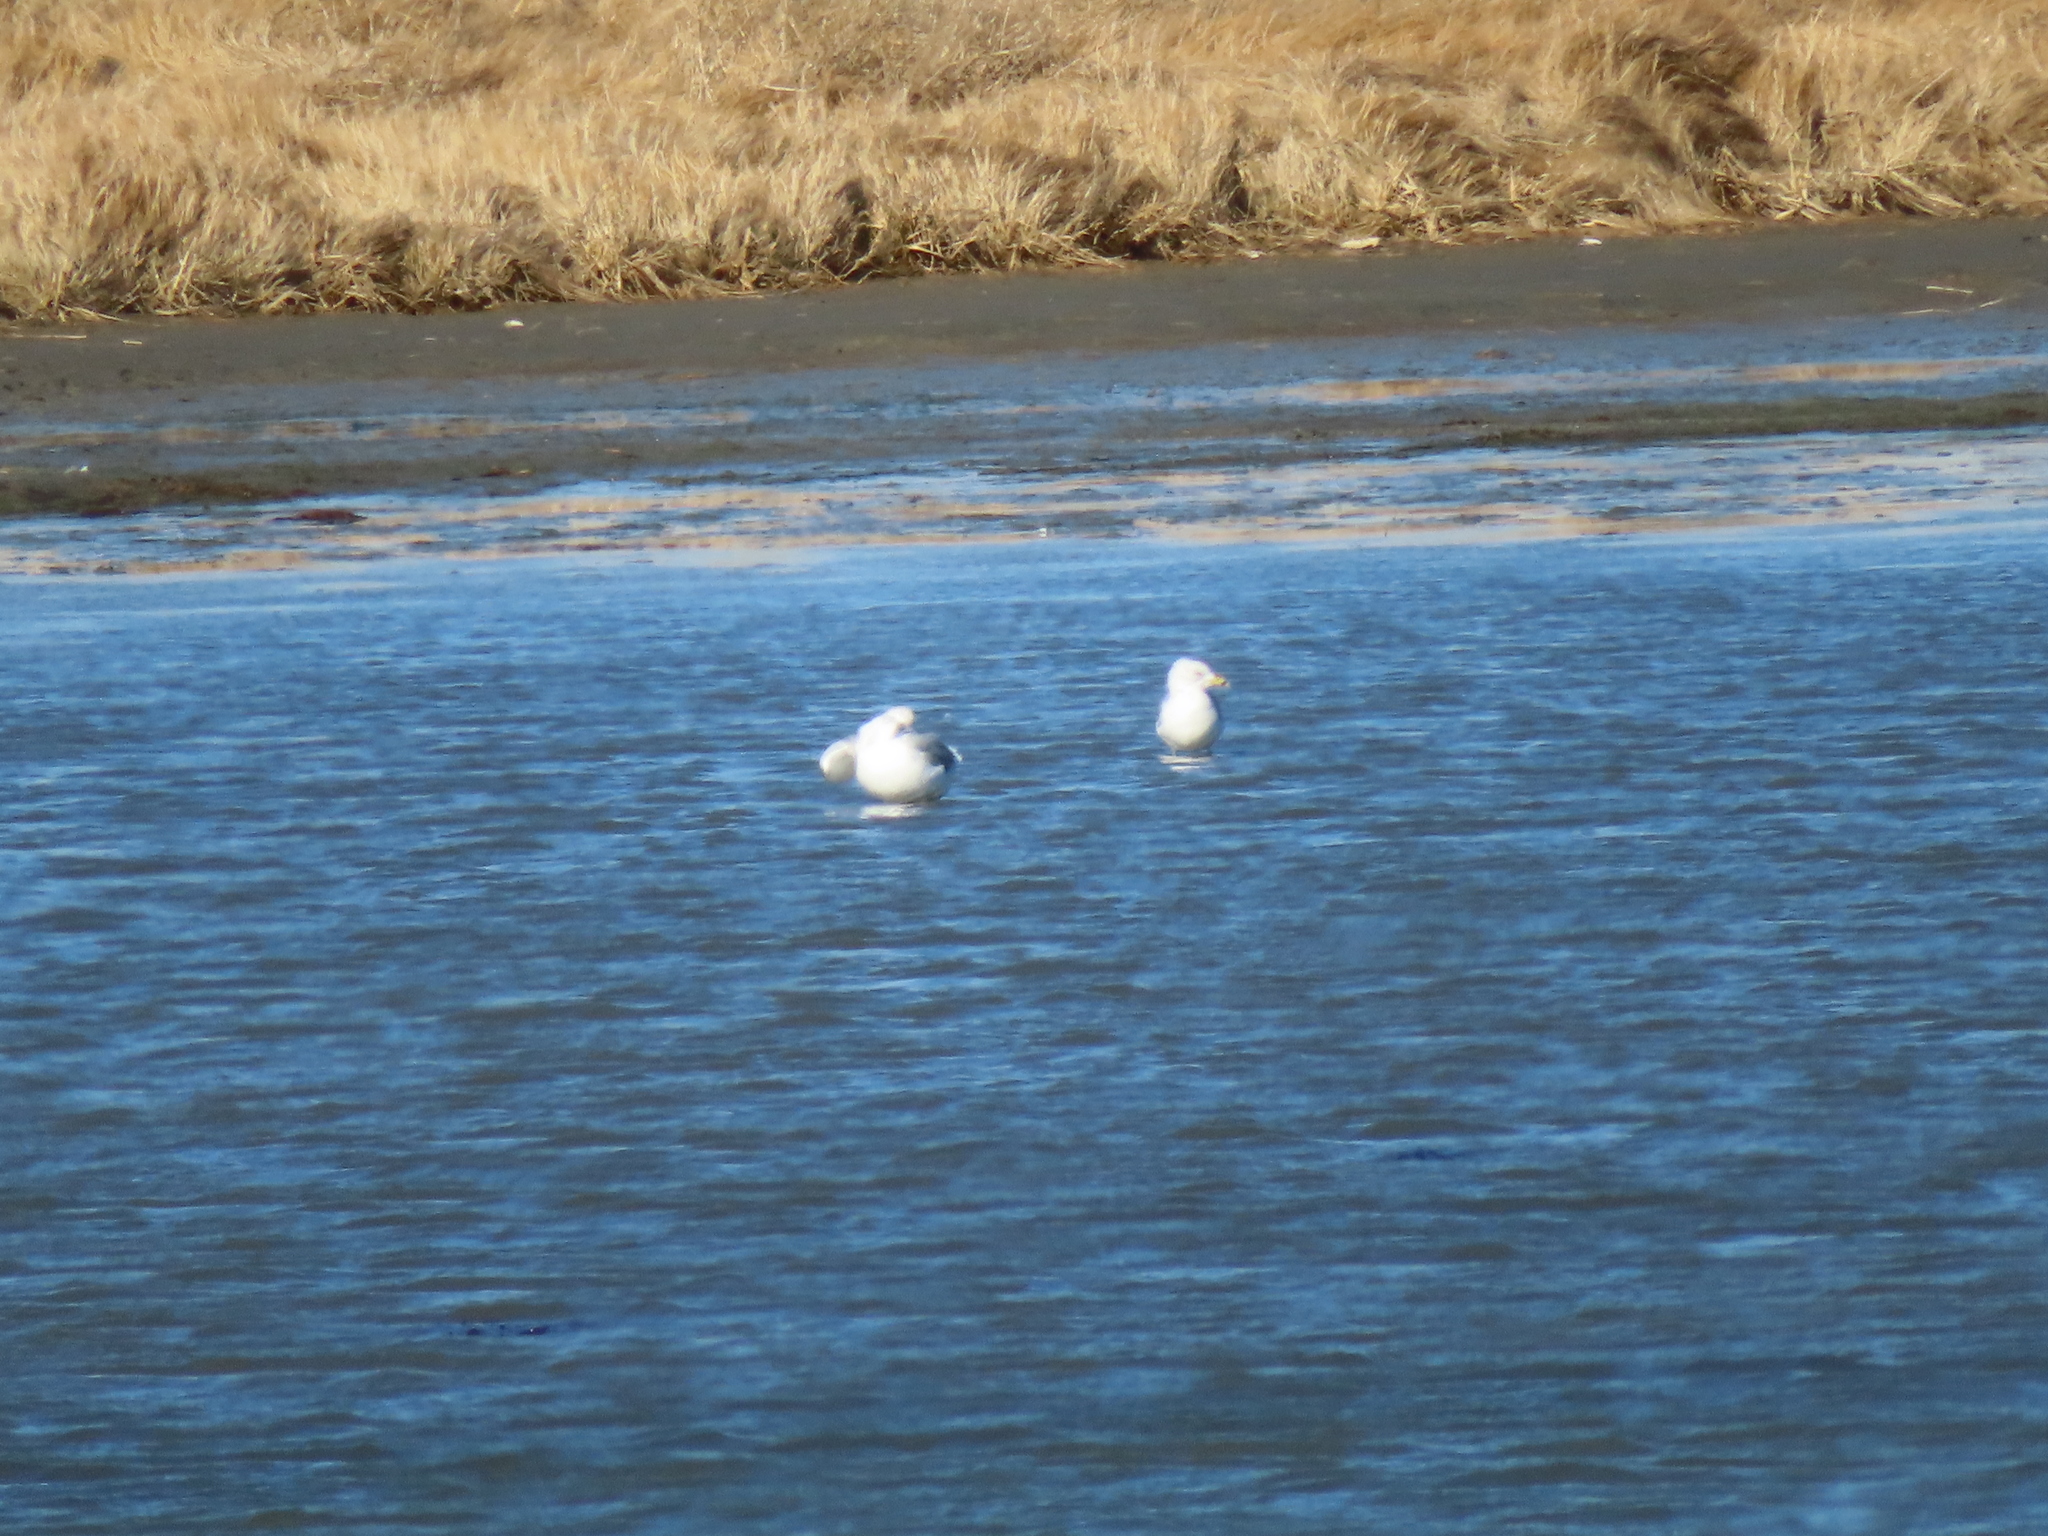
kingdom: Animalia
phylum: Chordata
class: Aves
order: Charadriiformes
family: Laridae
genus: Larus
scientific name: Larus delawarensis
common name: Ring-billed gull
